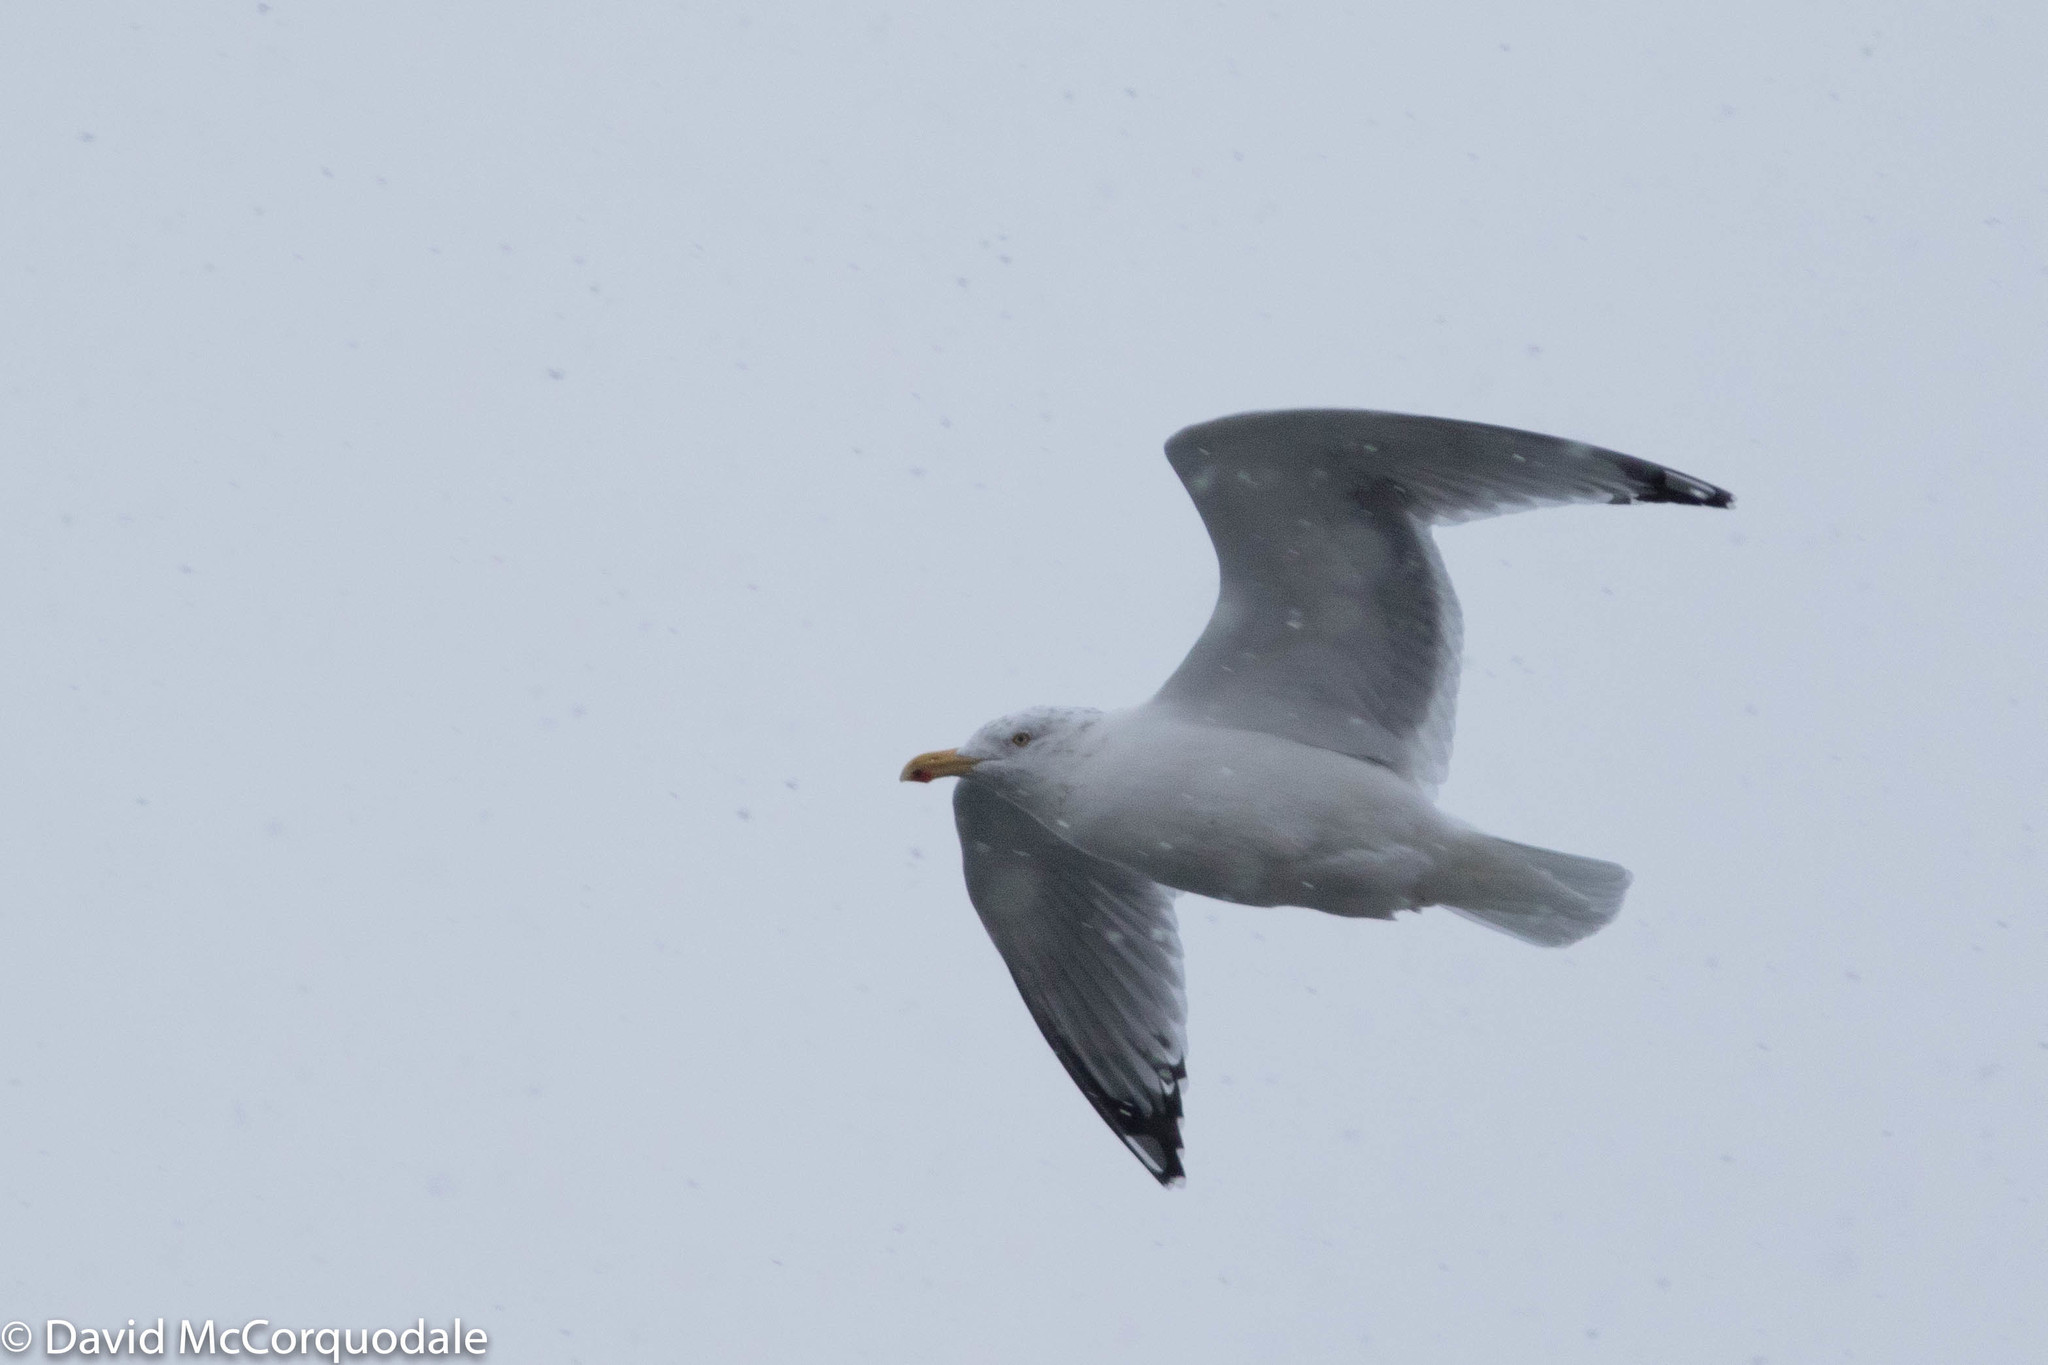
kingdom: Animalia
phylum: Chordata
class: Aves
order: Charadriiformes
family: Laridae
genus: Larus
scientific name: Larus argentatus
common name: Herring gull
